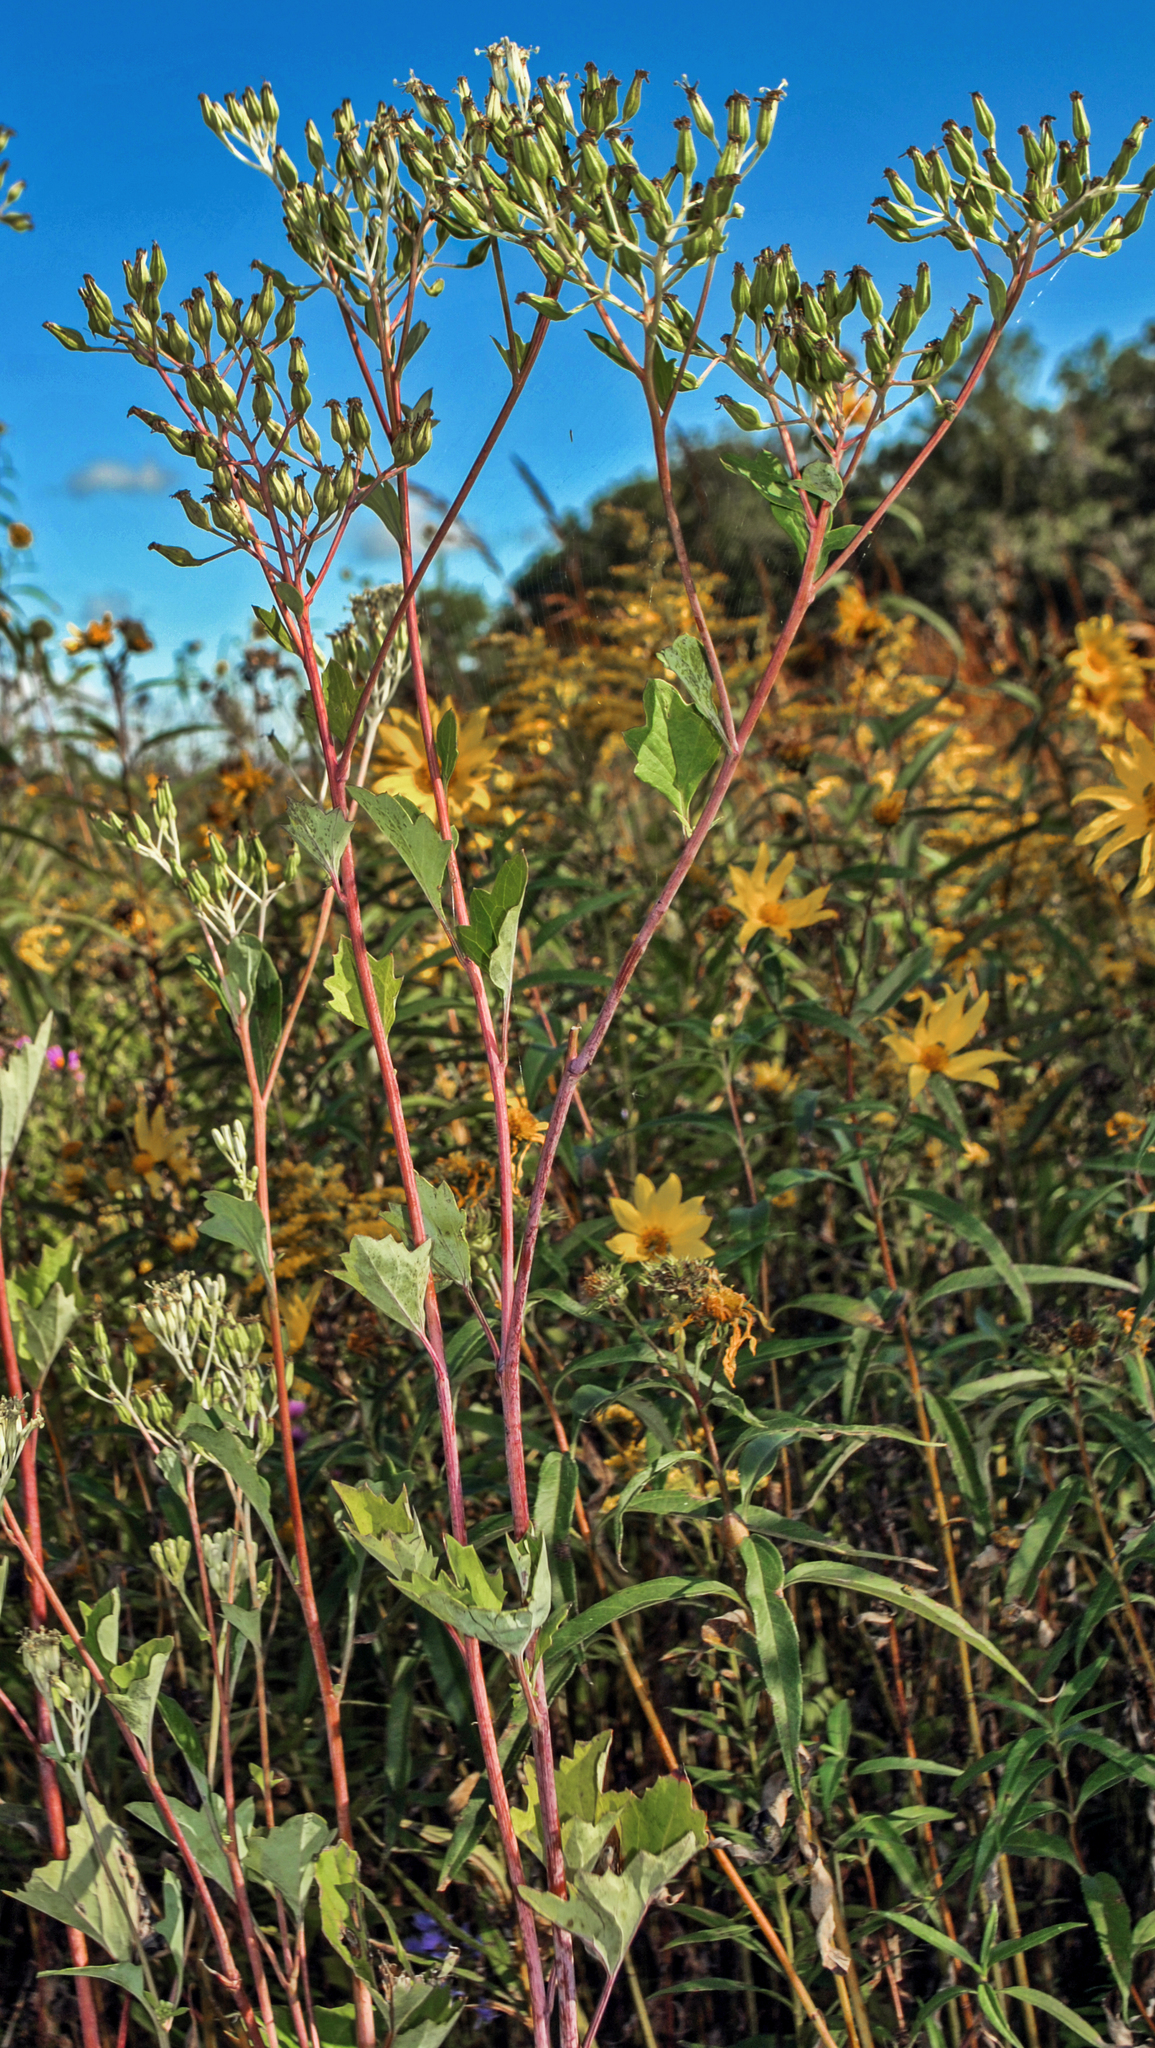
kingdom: Plantae
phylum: Tracheophyta
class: Magnoliopsida
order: Asterales
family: Asteraceae
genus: Arnoglossum
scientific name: Arnoglossum atriplicifolium
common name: Pale indian-plantain
